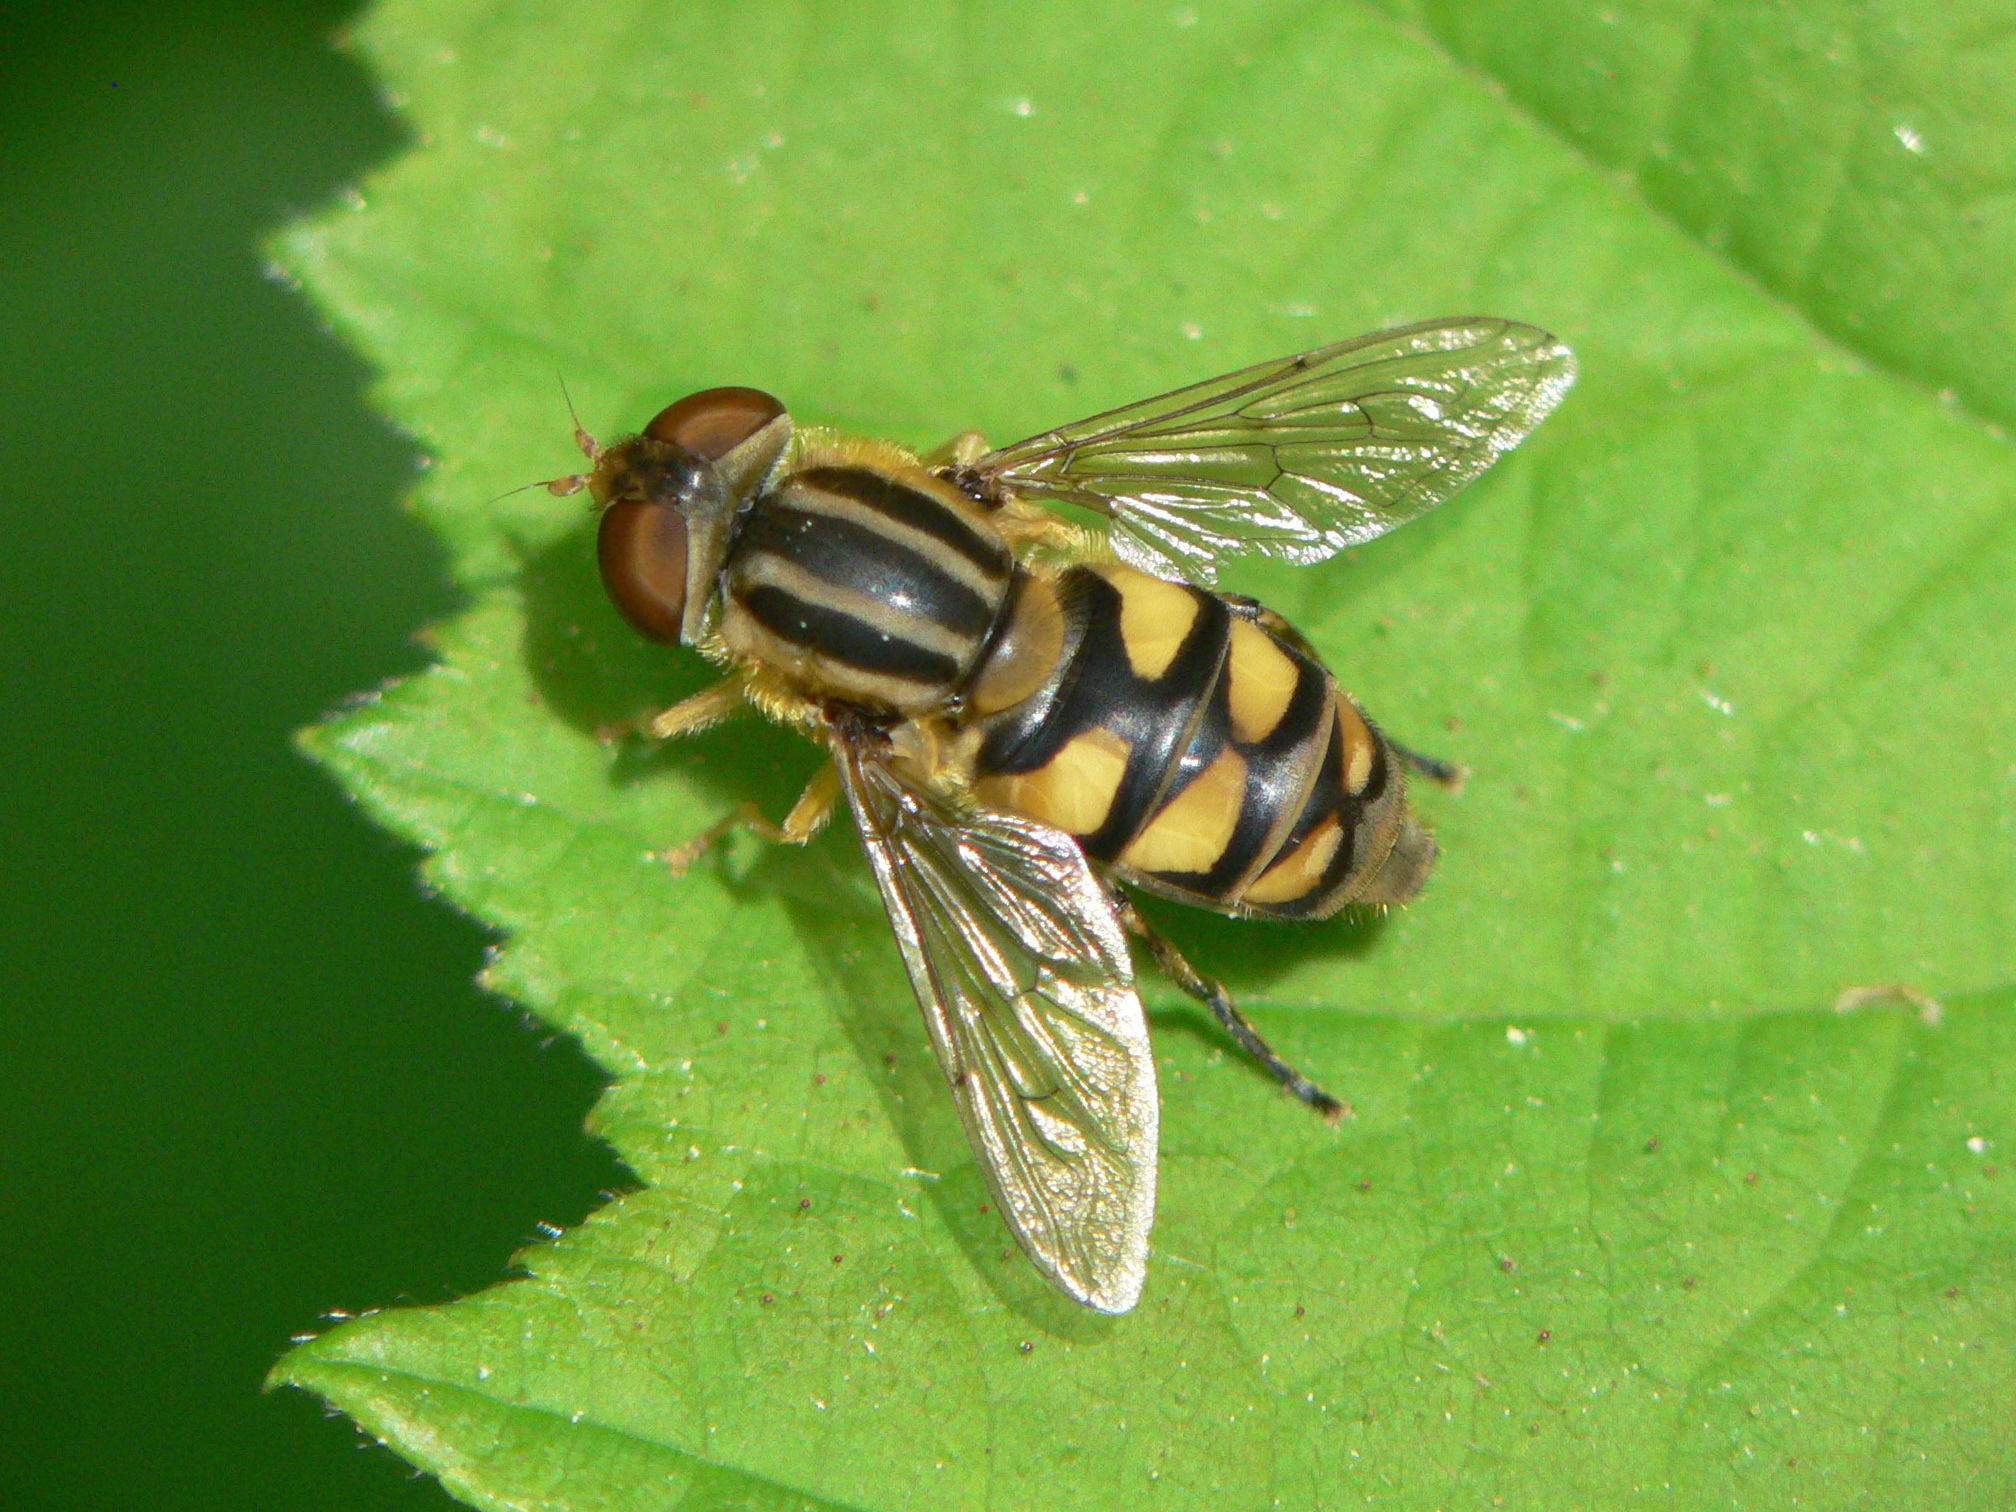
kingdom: Animalia
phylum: Arthropoda
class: Insecta
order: Diptera
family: Syrphidae
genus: Parhelophilus
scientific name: Parhelophilus integer
